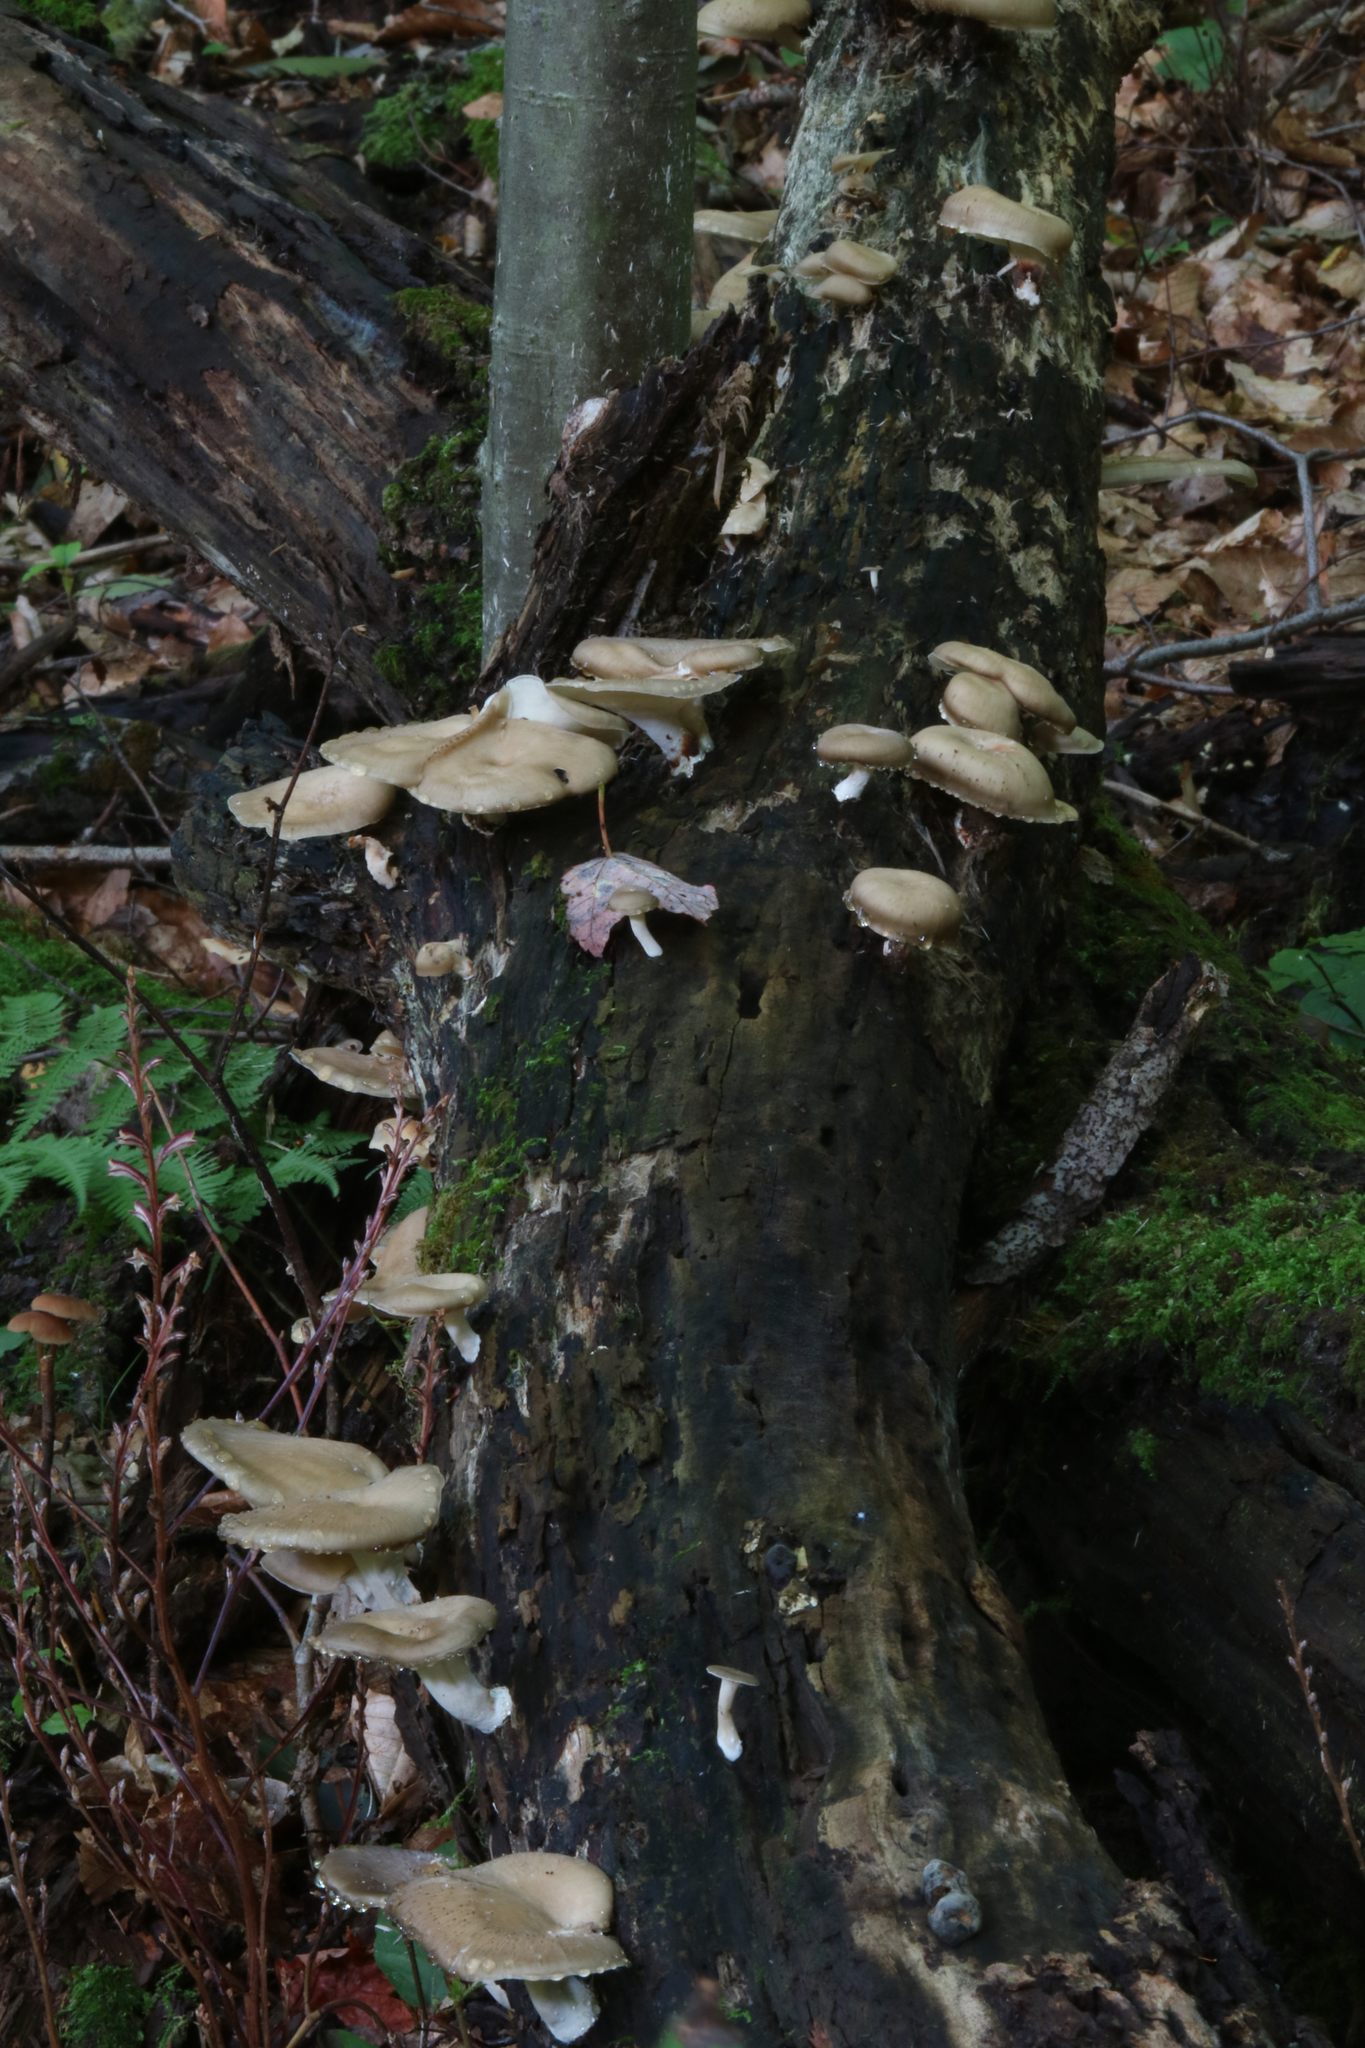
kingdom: Fungi
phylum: Basidiomycota
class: Agaricomycetes
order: Polyporales
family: Polyporaceae
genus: Picipes
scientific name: Picipes badius
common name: Bay polypore
